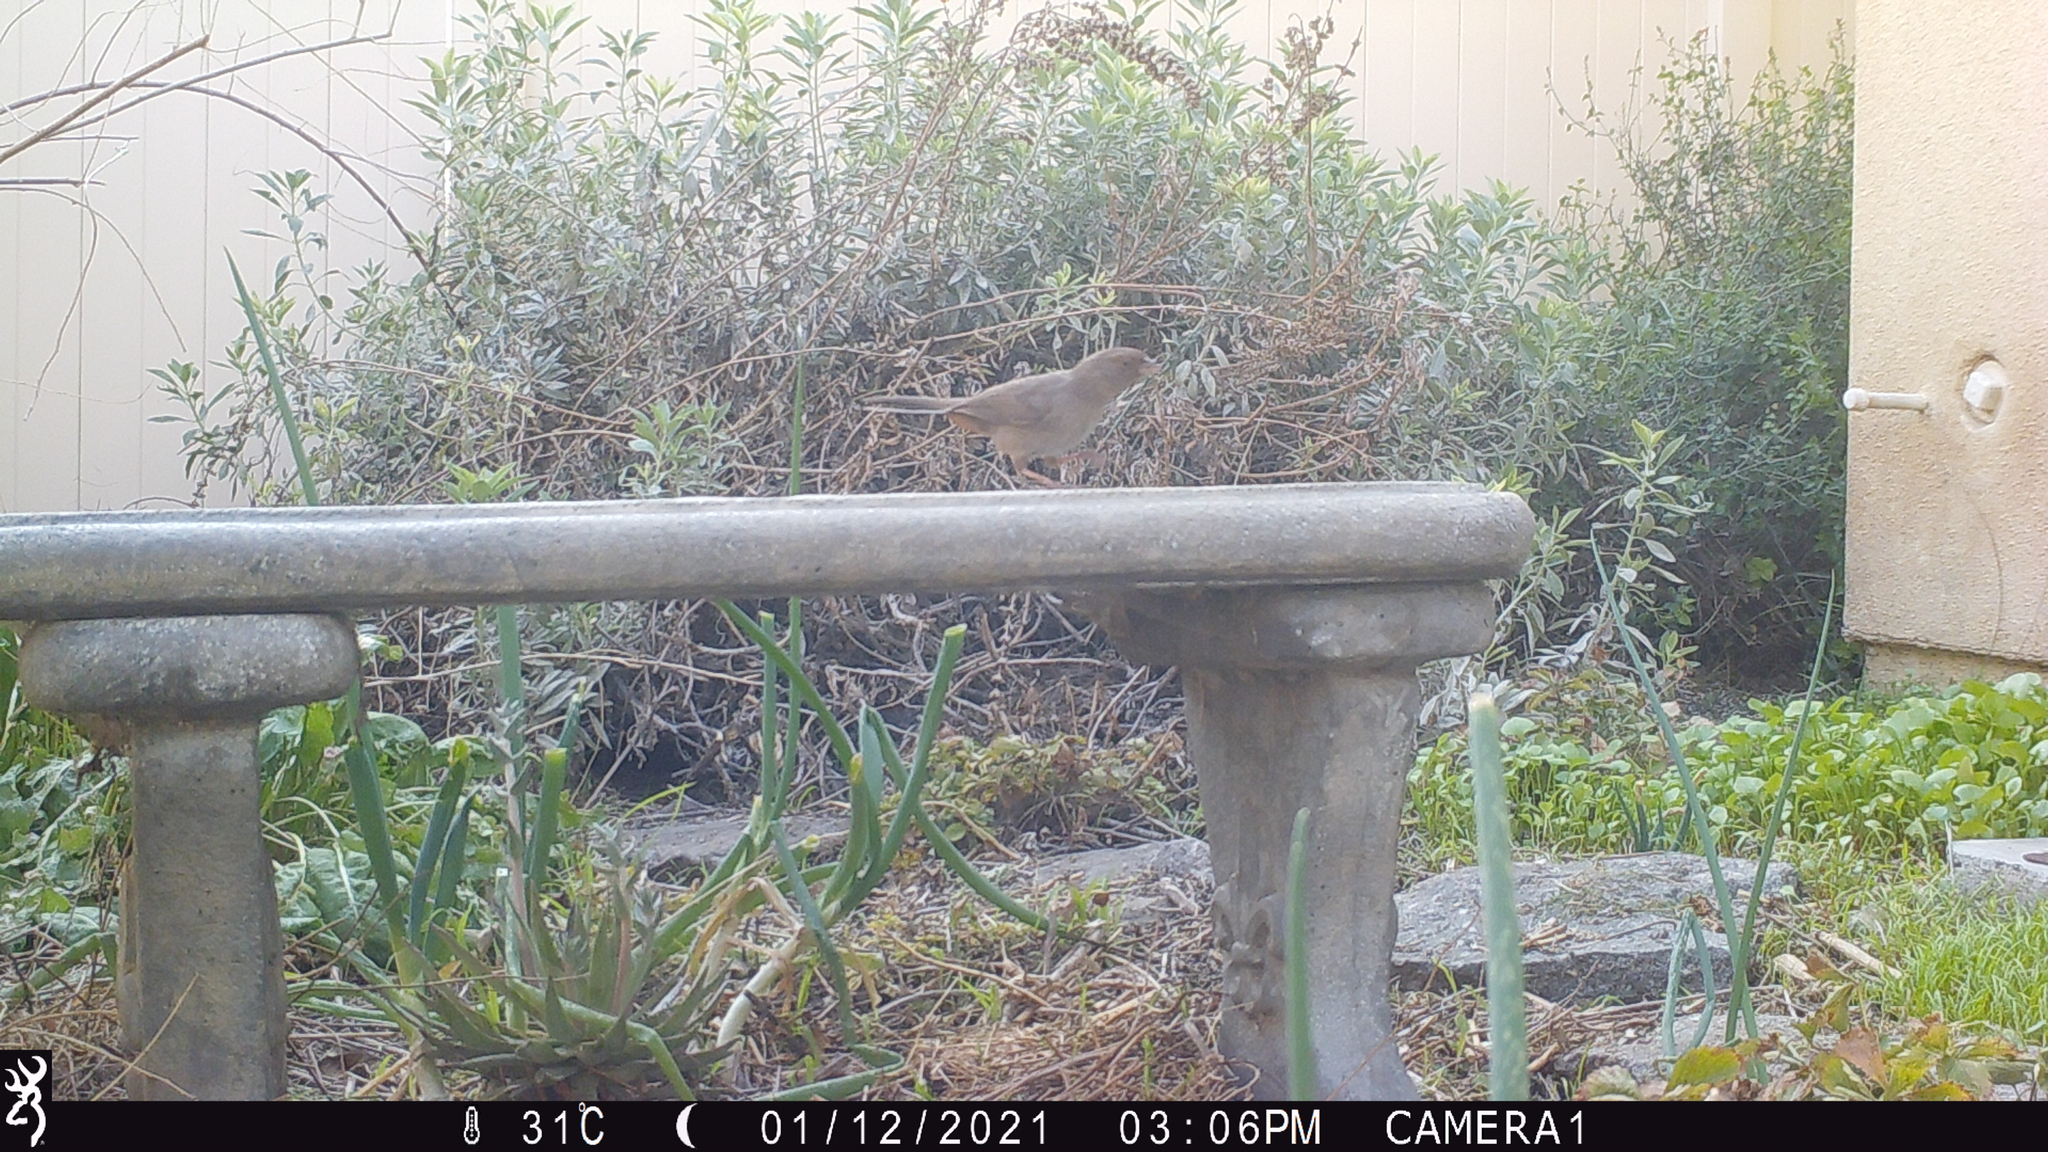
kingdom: Animalia
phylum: Chordata
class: Aves
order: Passeriformes
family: Passerellidae
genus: Melozone
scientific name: Melozone crissalis
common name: California towhee
